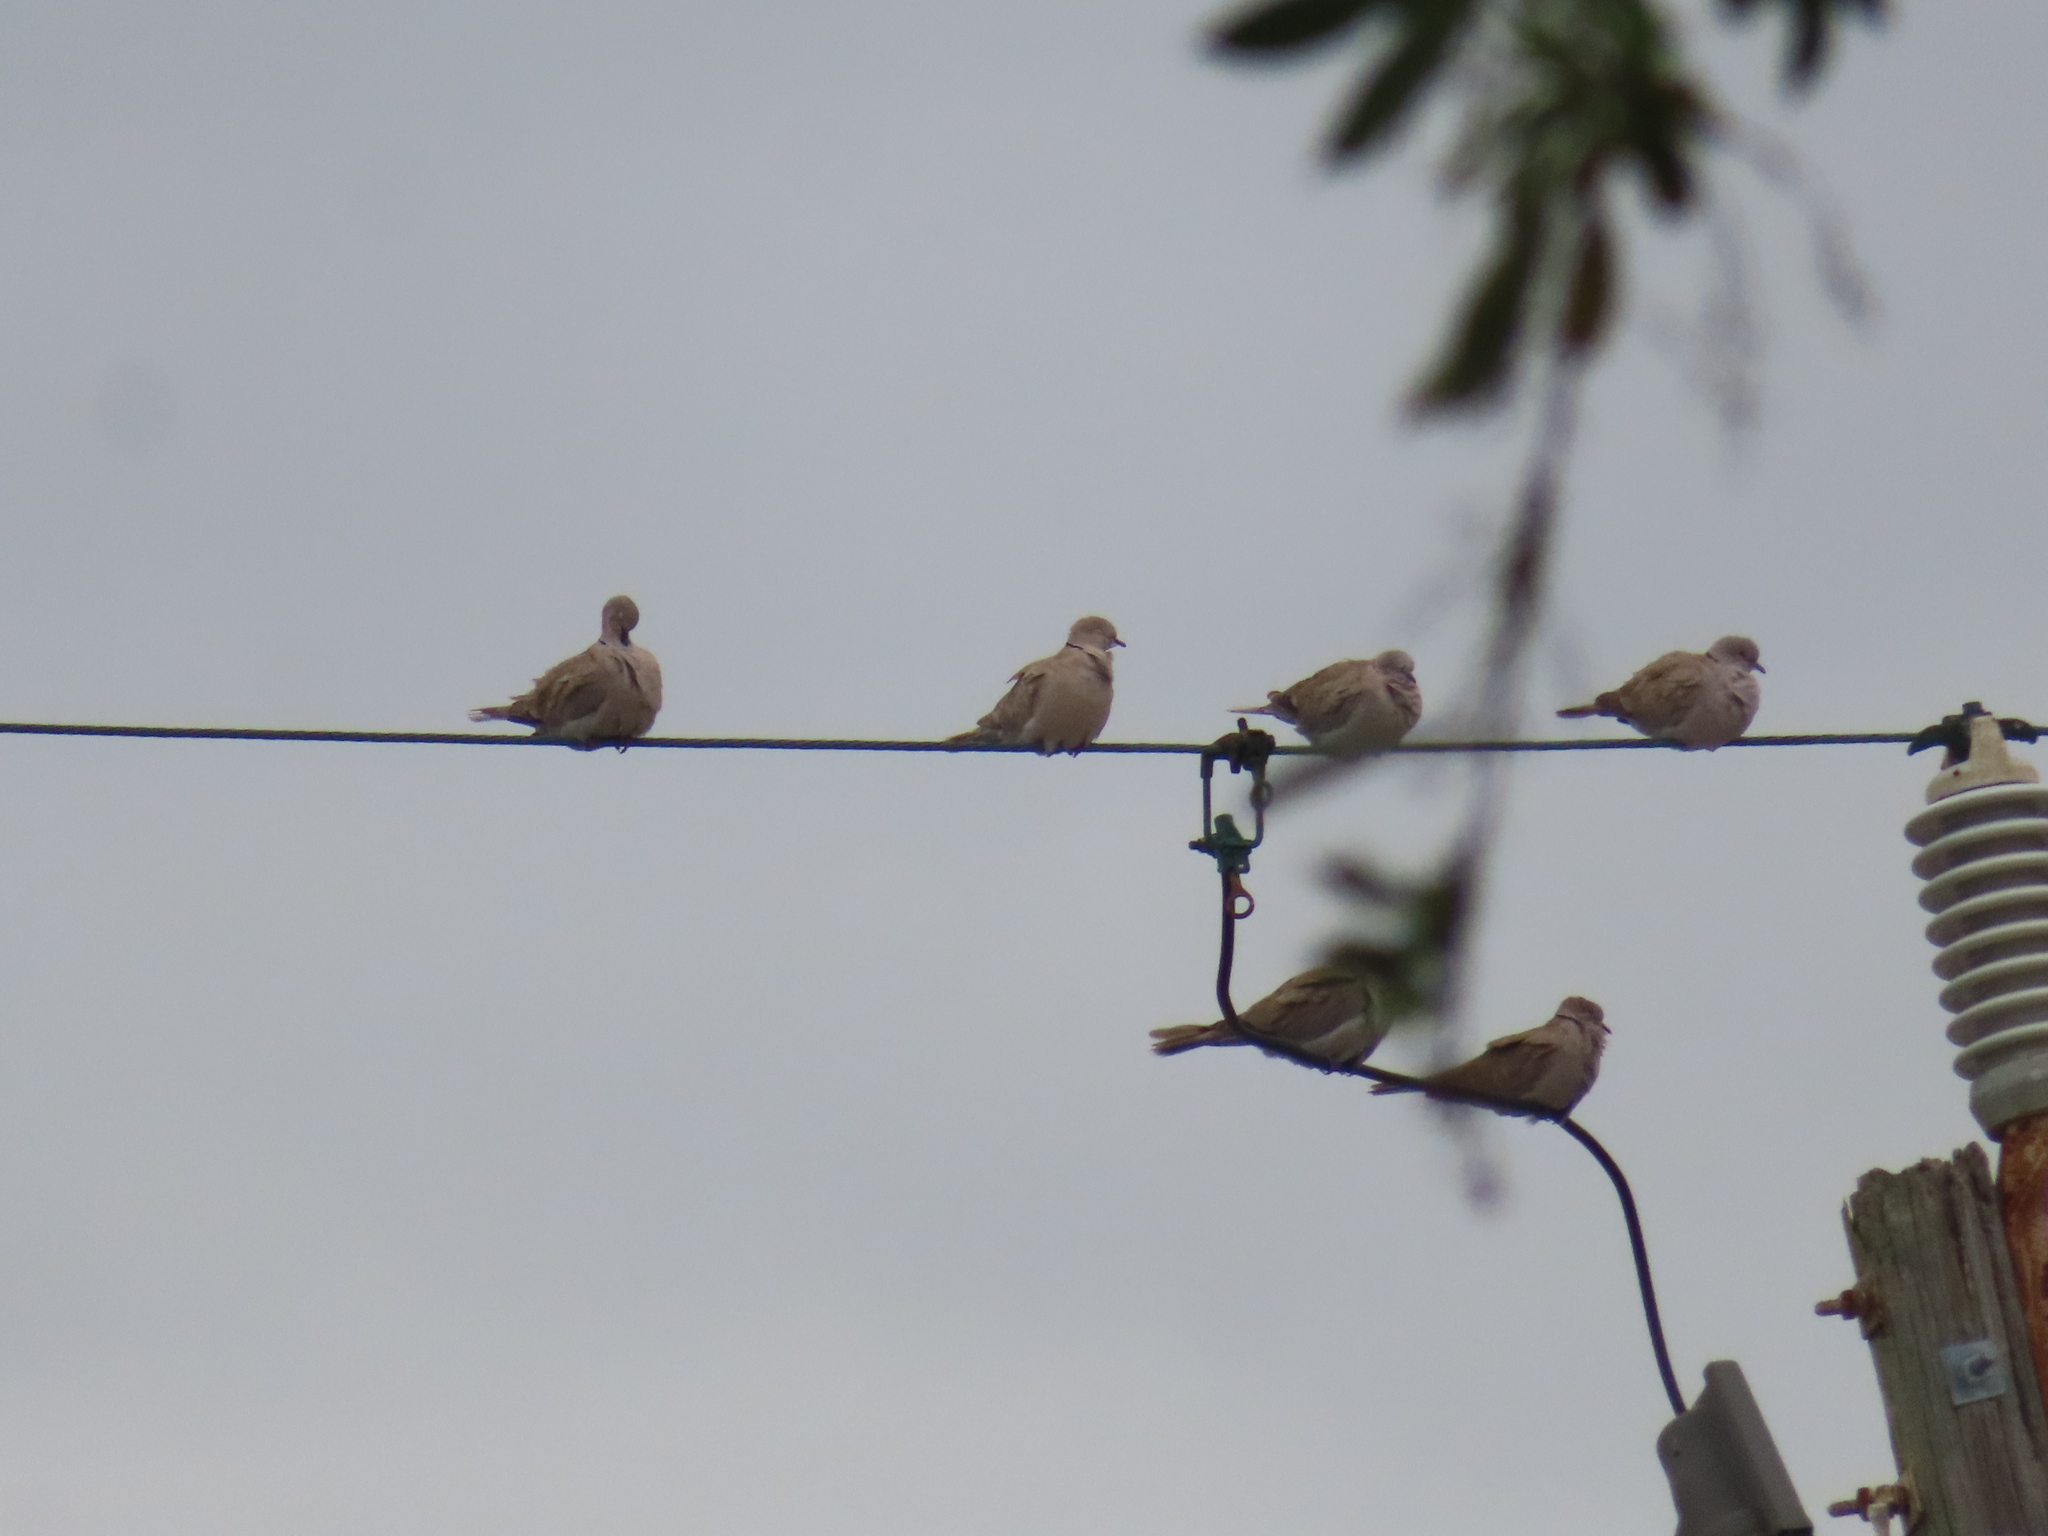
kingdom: Animalia
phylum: Chordata
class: Aves
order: Columbiformes
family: Columbidae
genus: Streptopelia
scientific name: Streptopelia decaocto
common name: Eurasian collared dove
